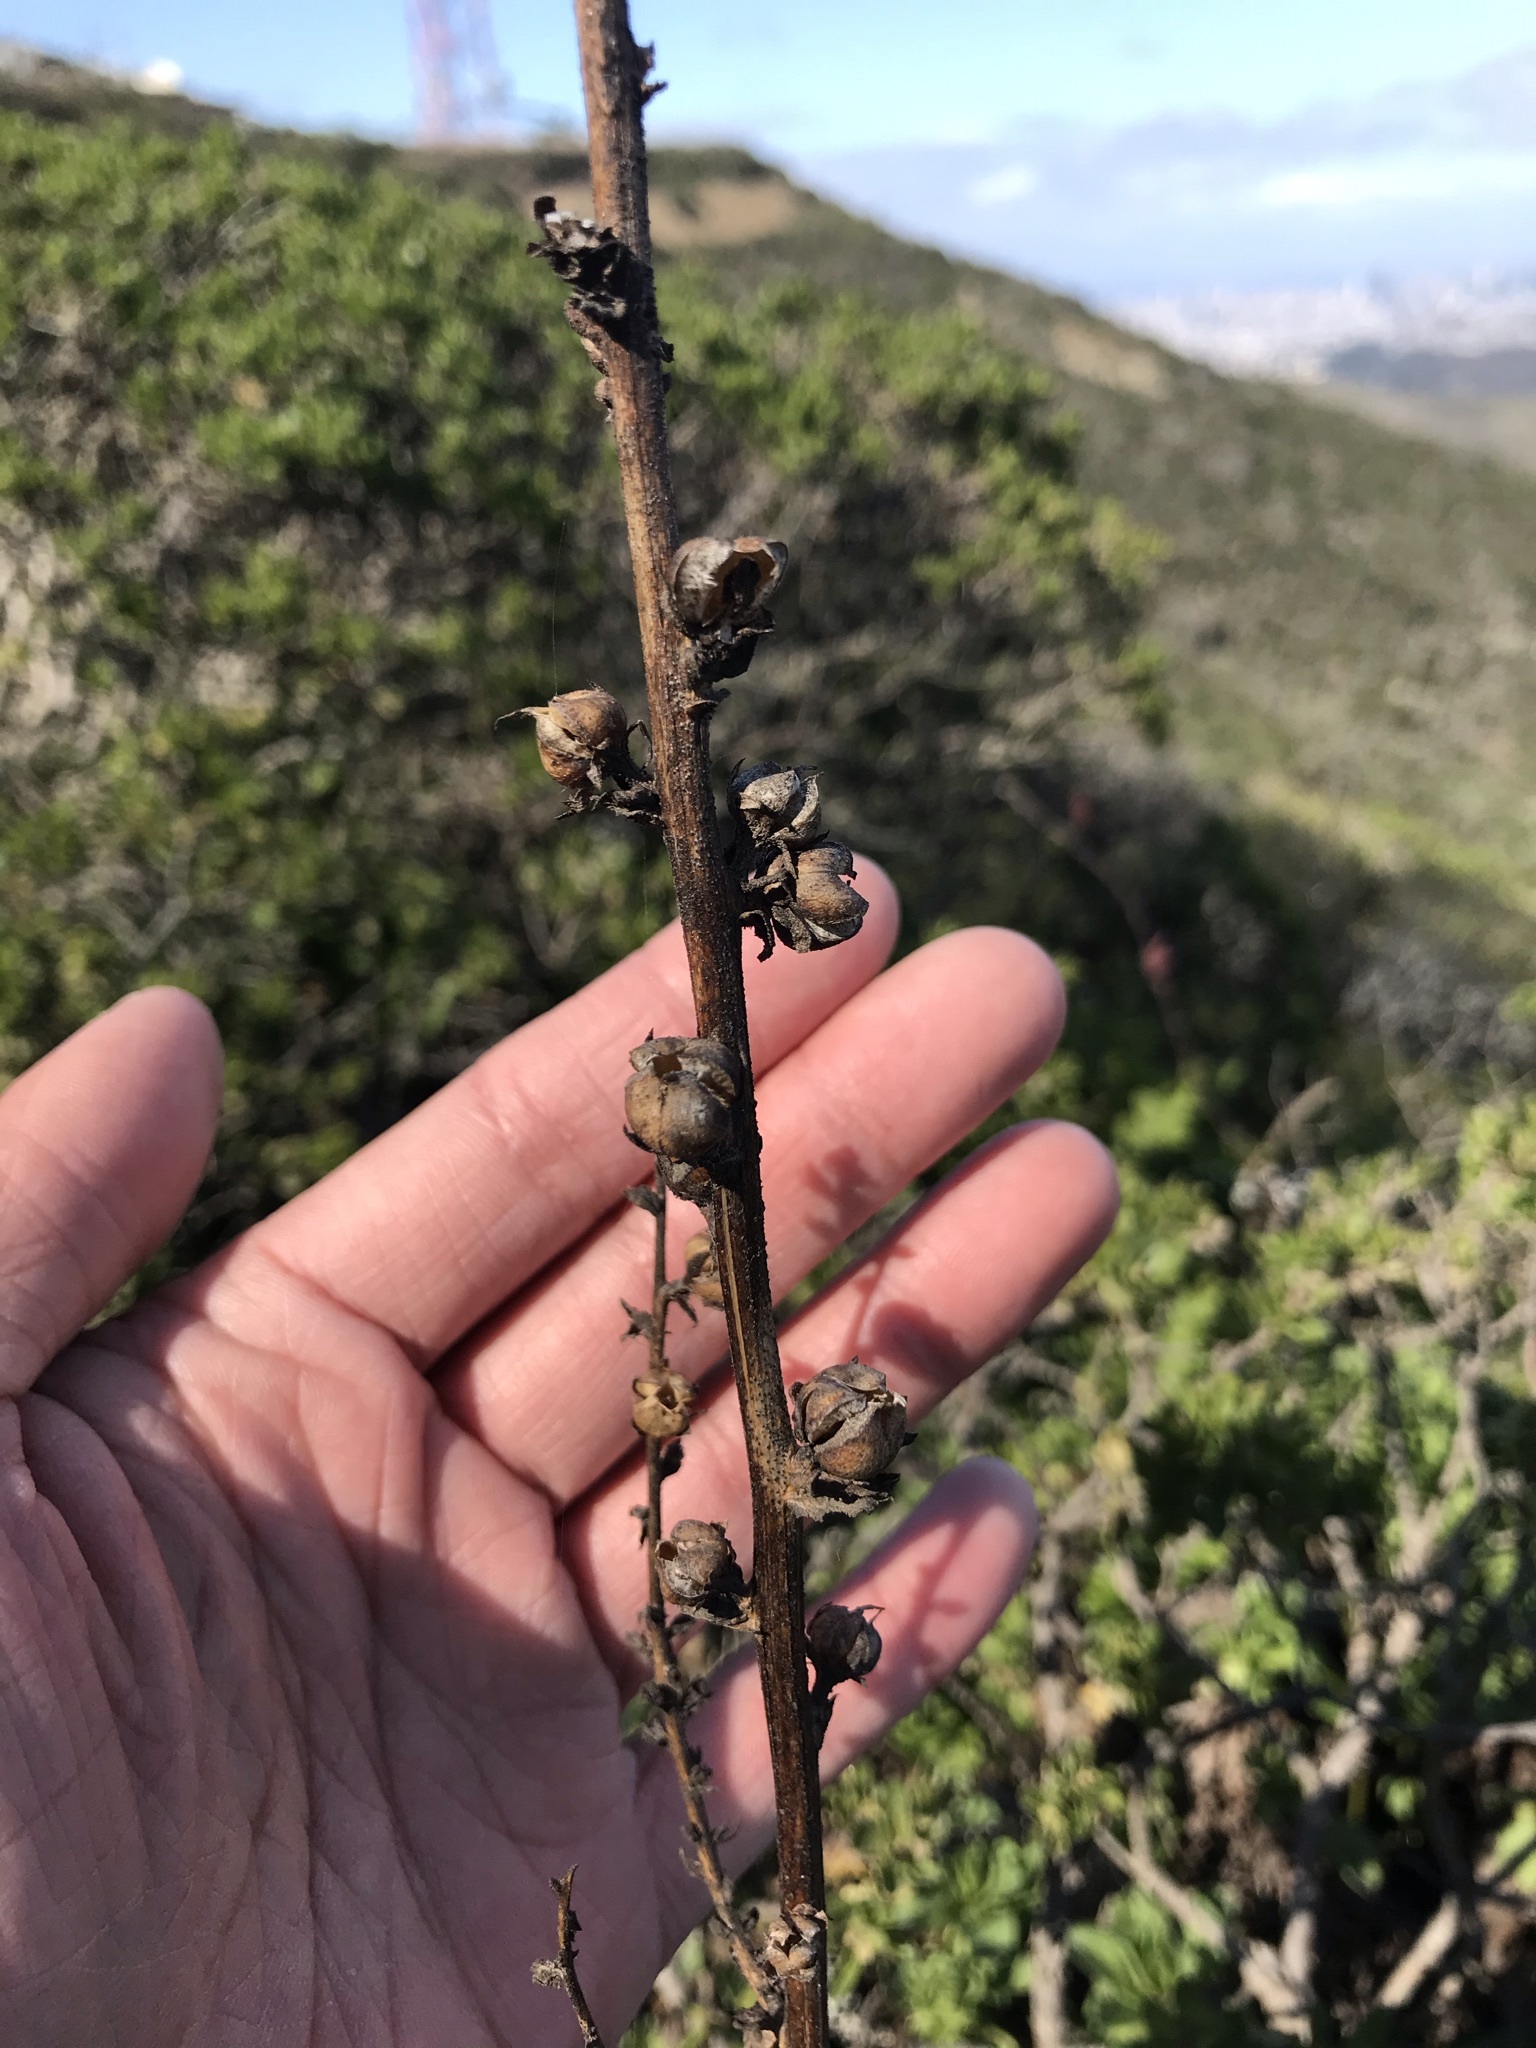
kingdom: Plantae
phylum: Tracheophyta
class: Magnoliopsida
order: Lamiales
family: Scrophulariaceae
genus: Verbascum
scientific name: Verbascum virgatum
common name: Twiggy mullein
